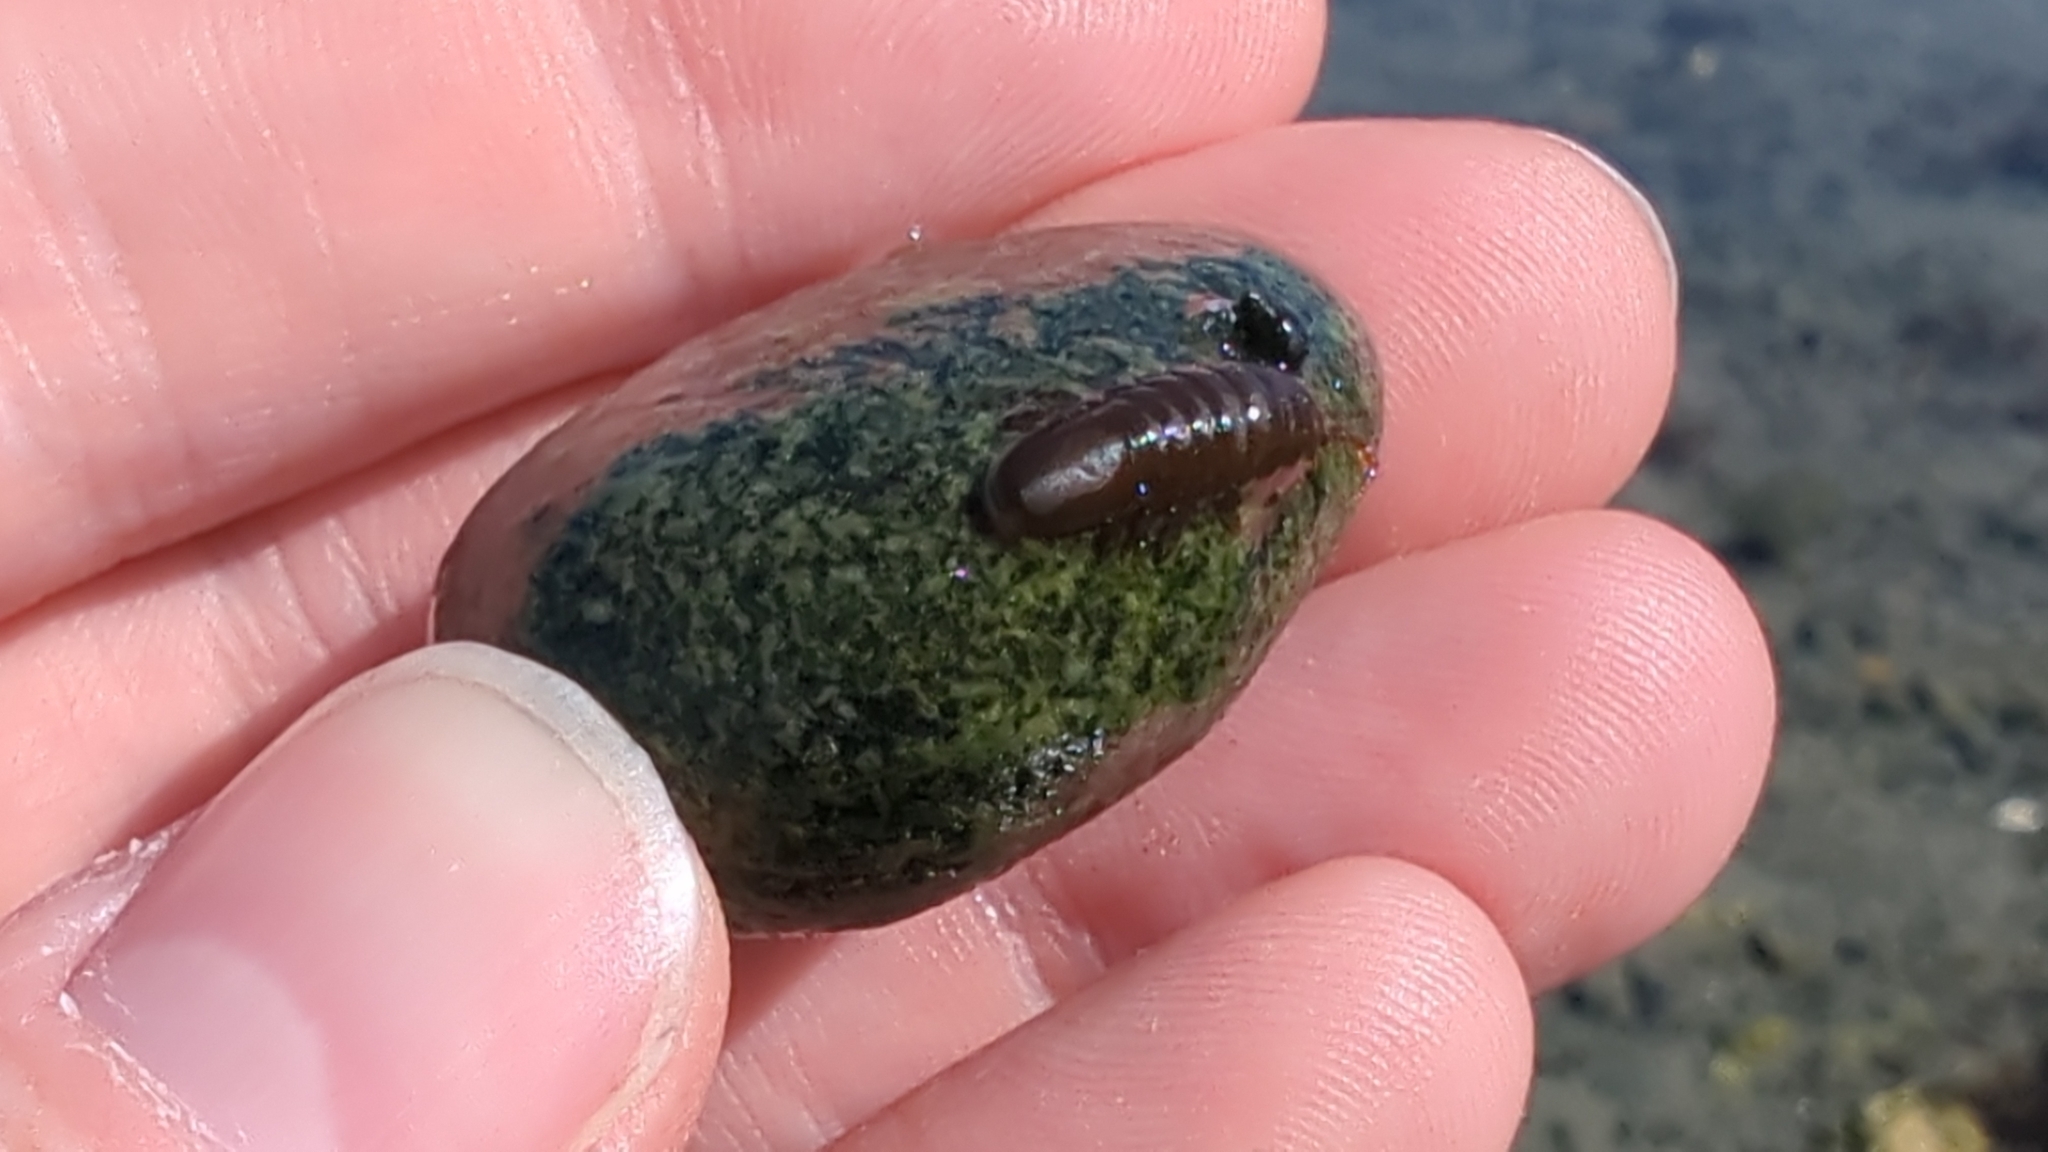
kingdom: Animalia
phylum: Arthropoda
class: Malacostraca
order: Isopoda
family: Idoteidae
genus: Pentidotea
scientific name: Pentidotea wosnesenskii
